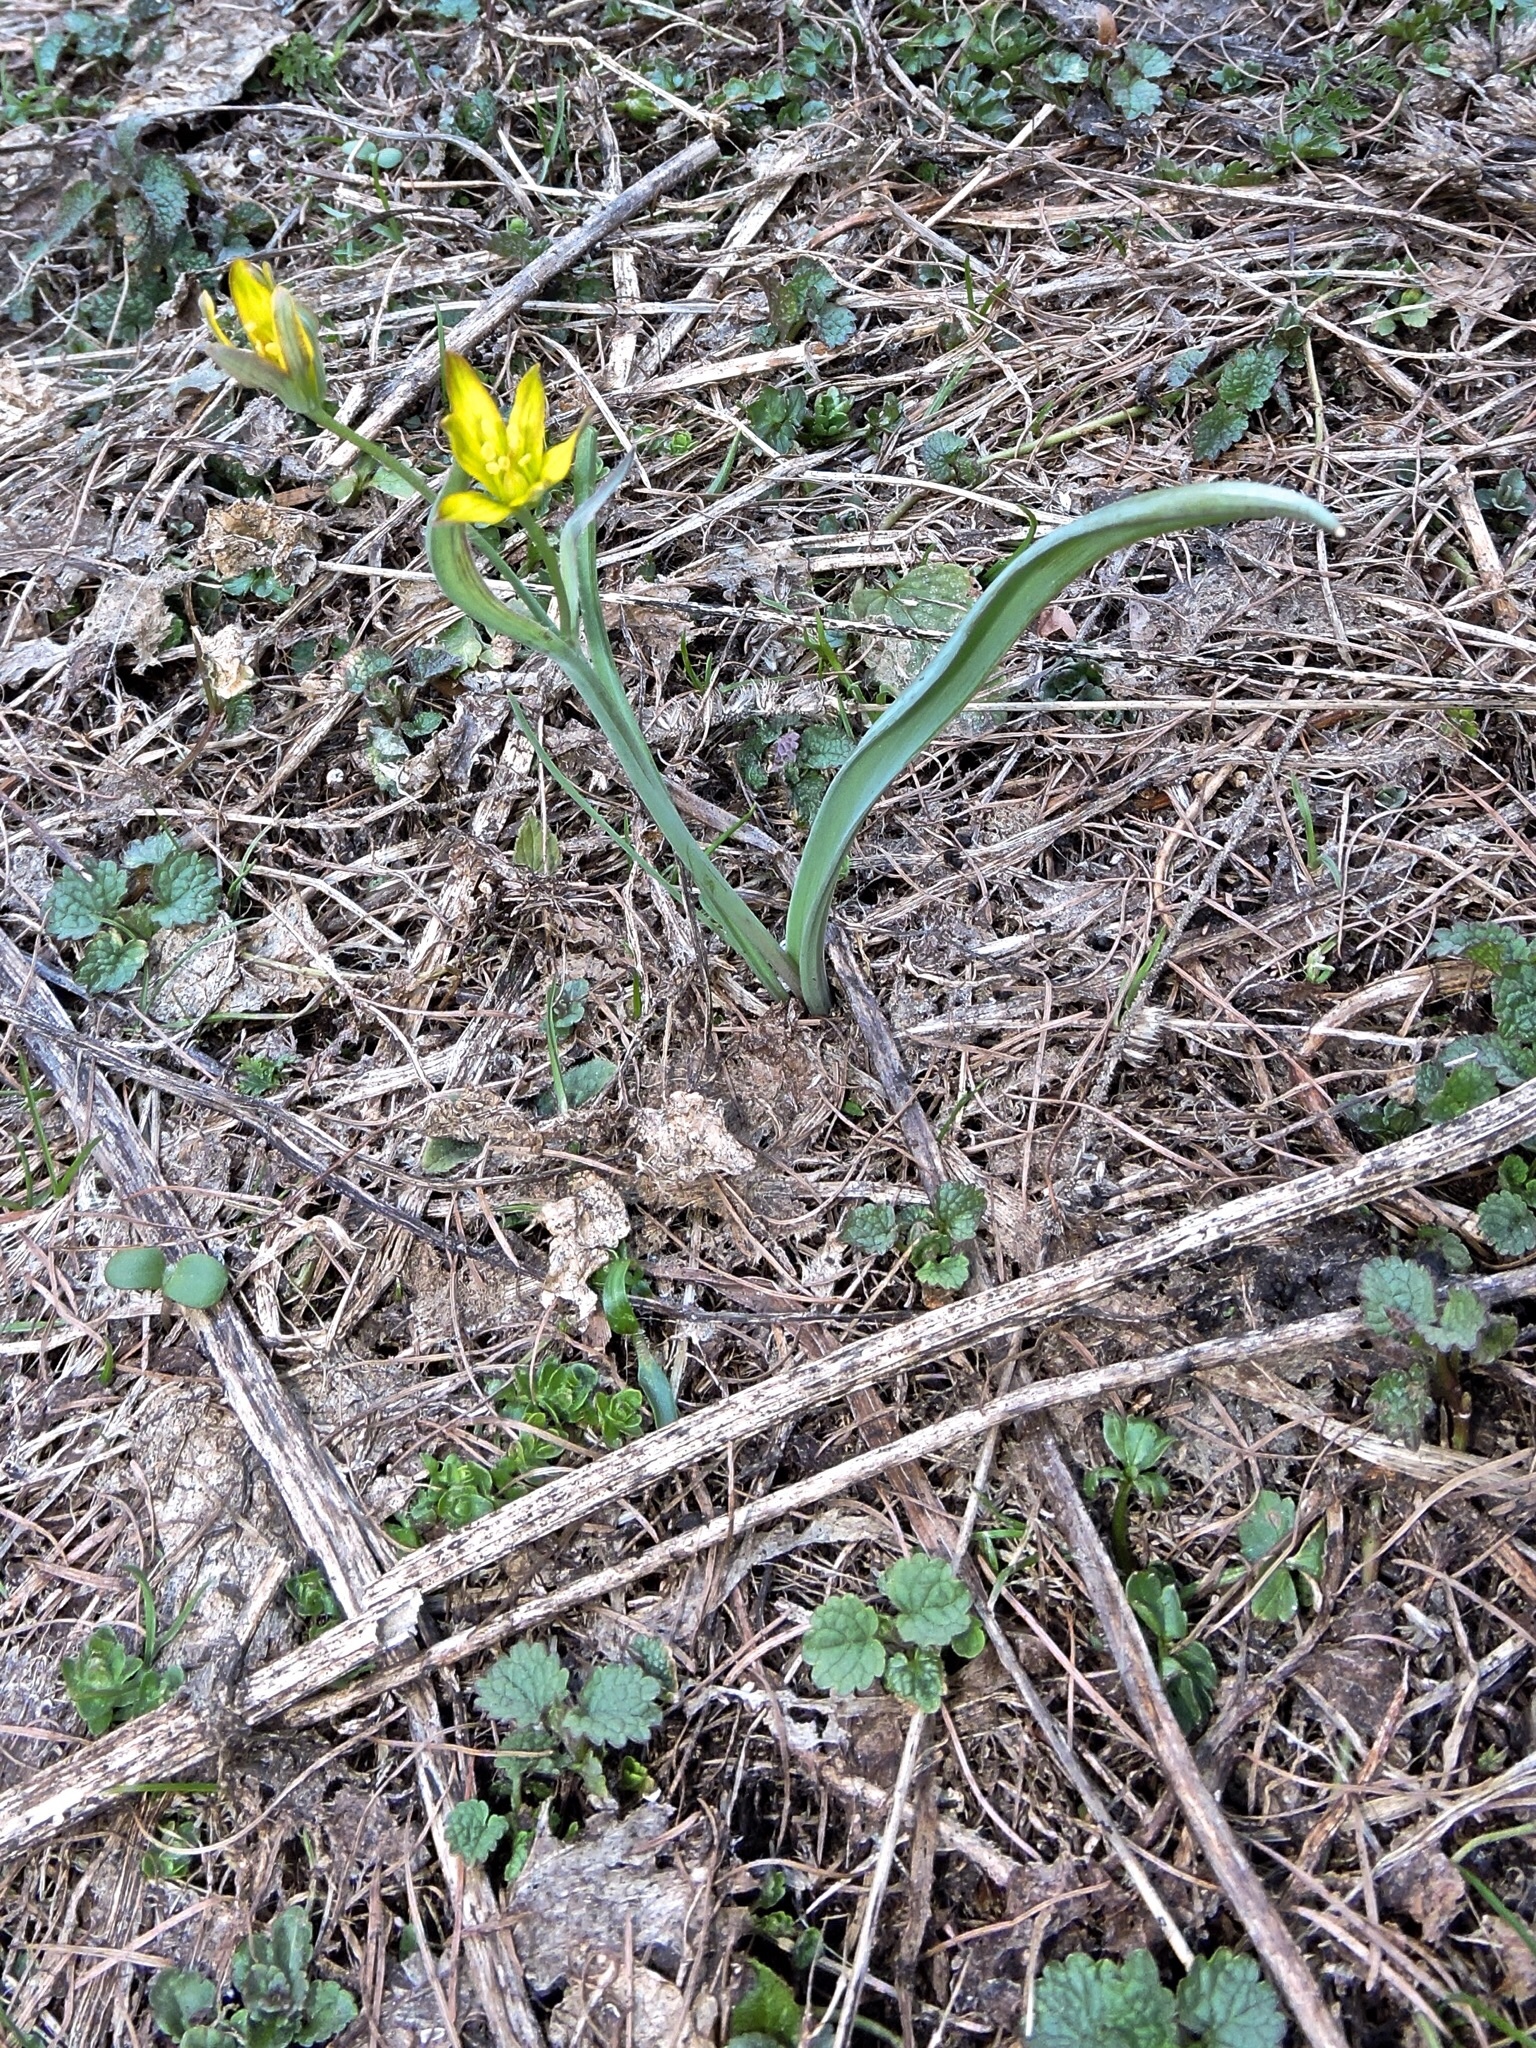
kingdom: Plantae
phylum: Tracheophyta
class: Liliopsida
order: Liliales
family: Liliaceae
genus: Gagea
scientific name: Gagea lutea
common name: Yellow star-of-bethlehem
